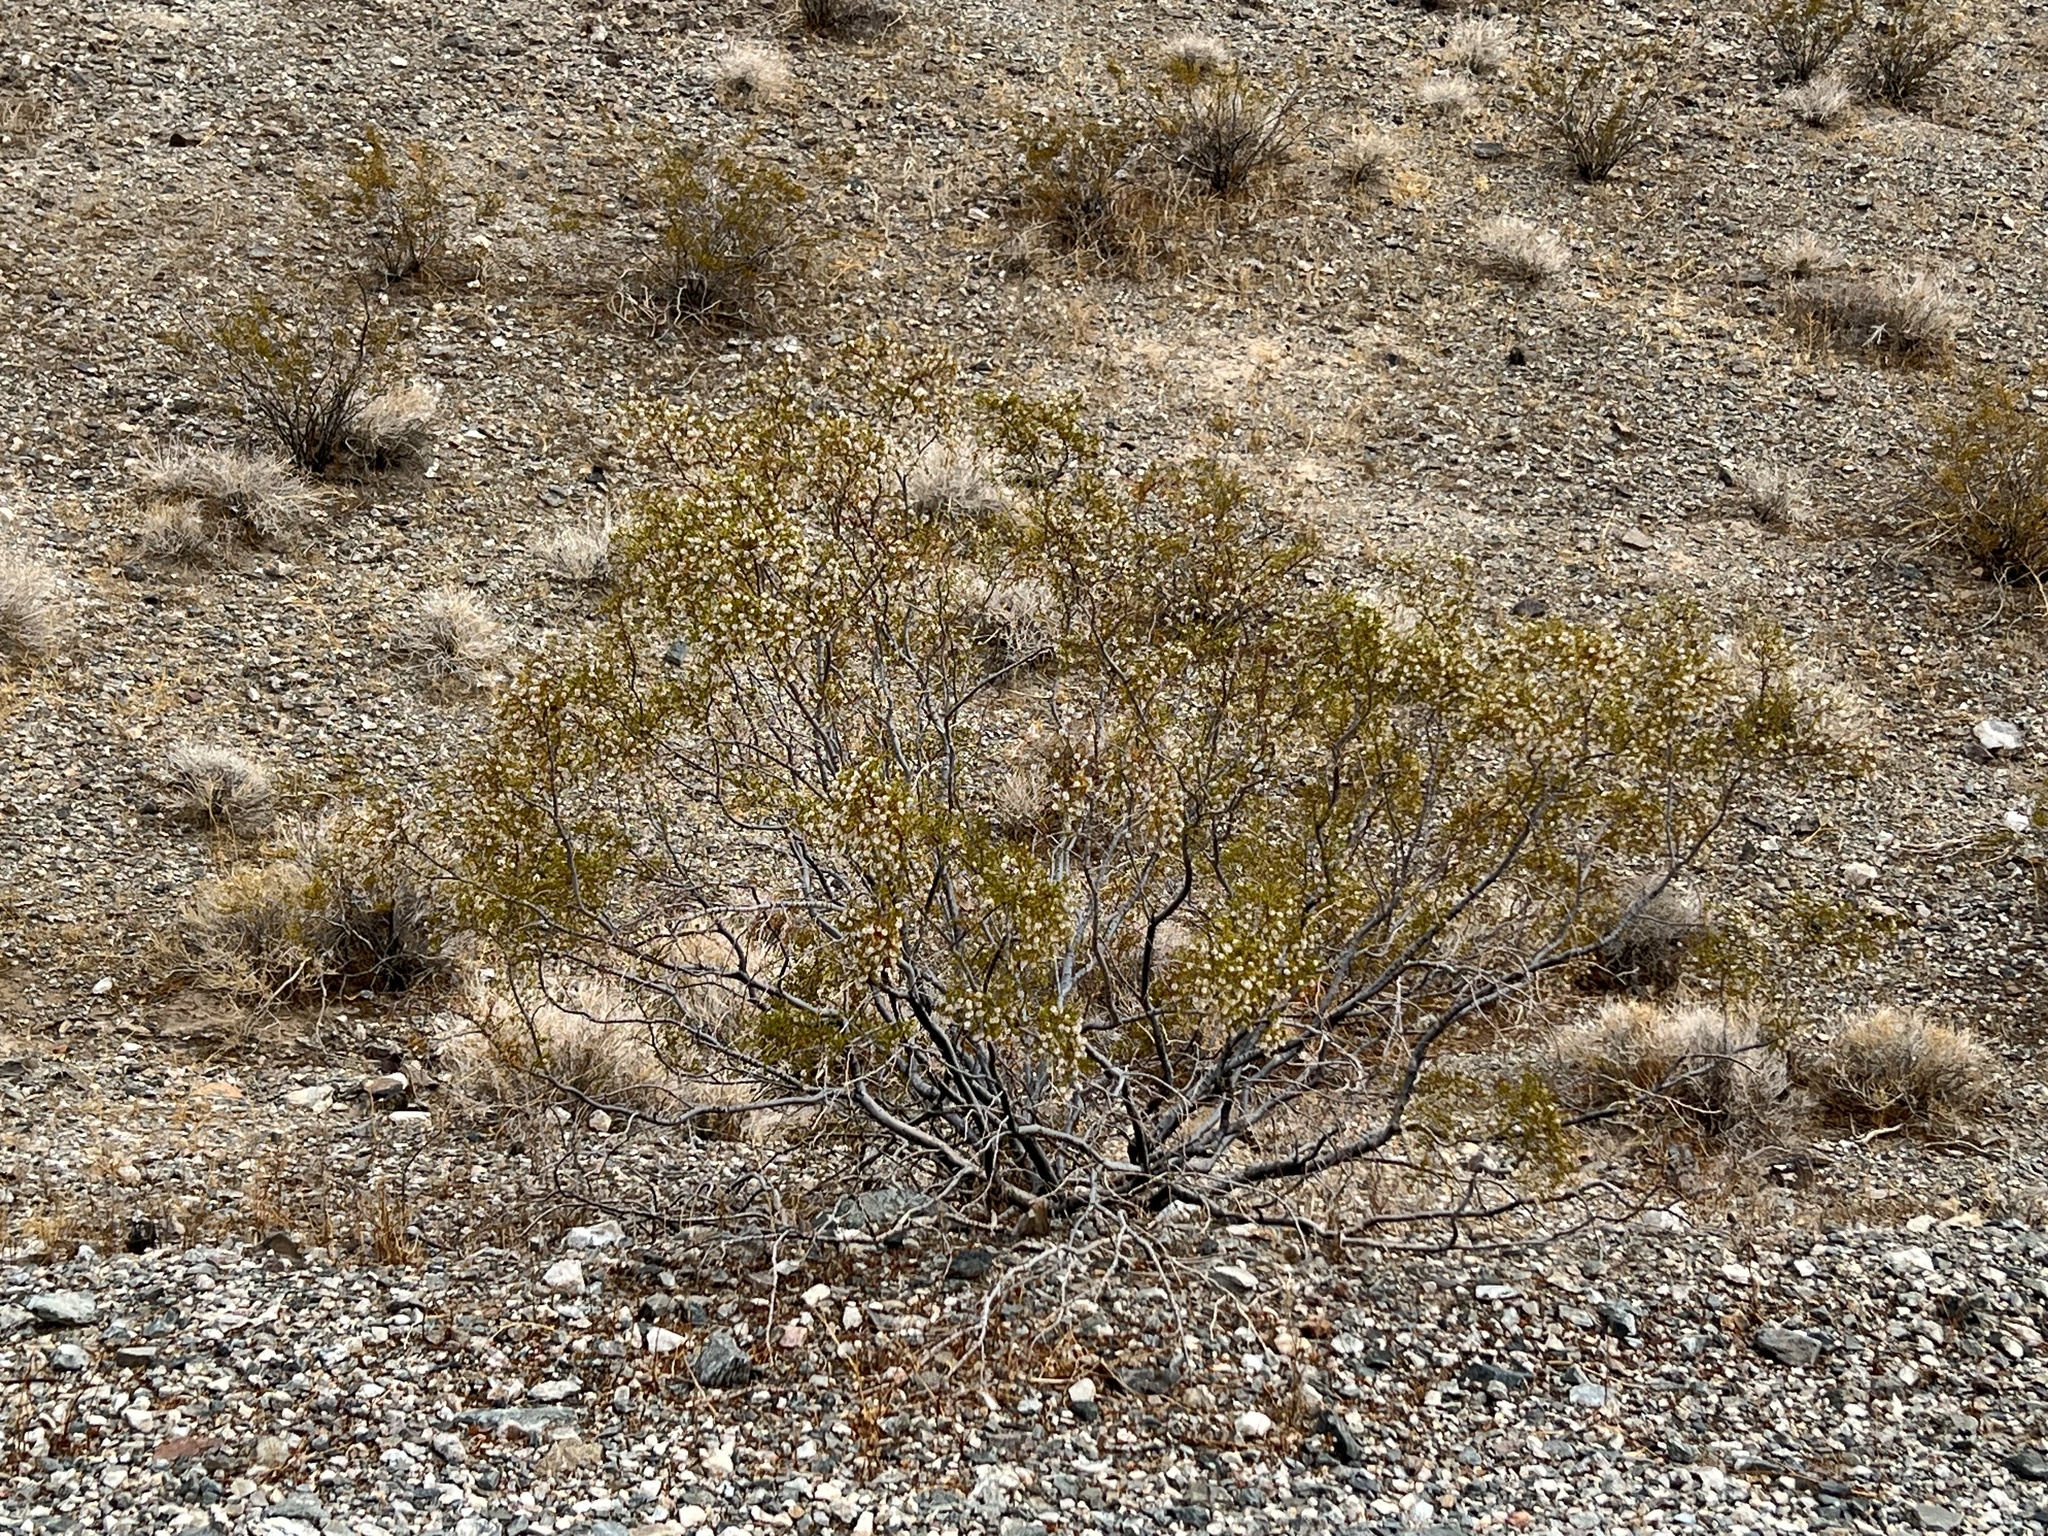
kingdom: Plantae
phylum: Tracheophyta
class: Magnoliopsida
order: Zygophyllales
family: Zygophyllaceae
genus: Larrea
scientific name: Larrea tridentata
